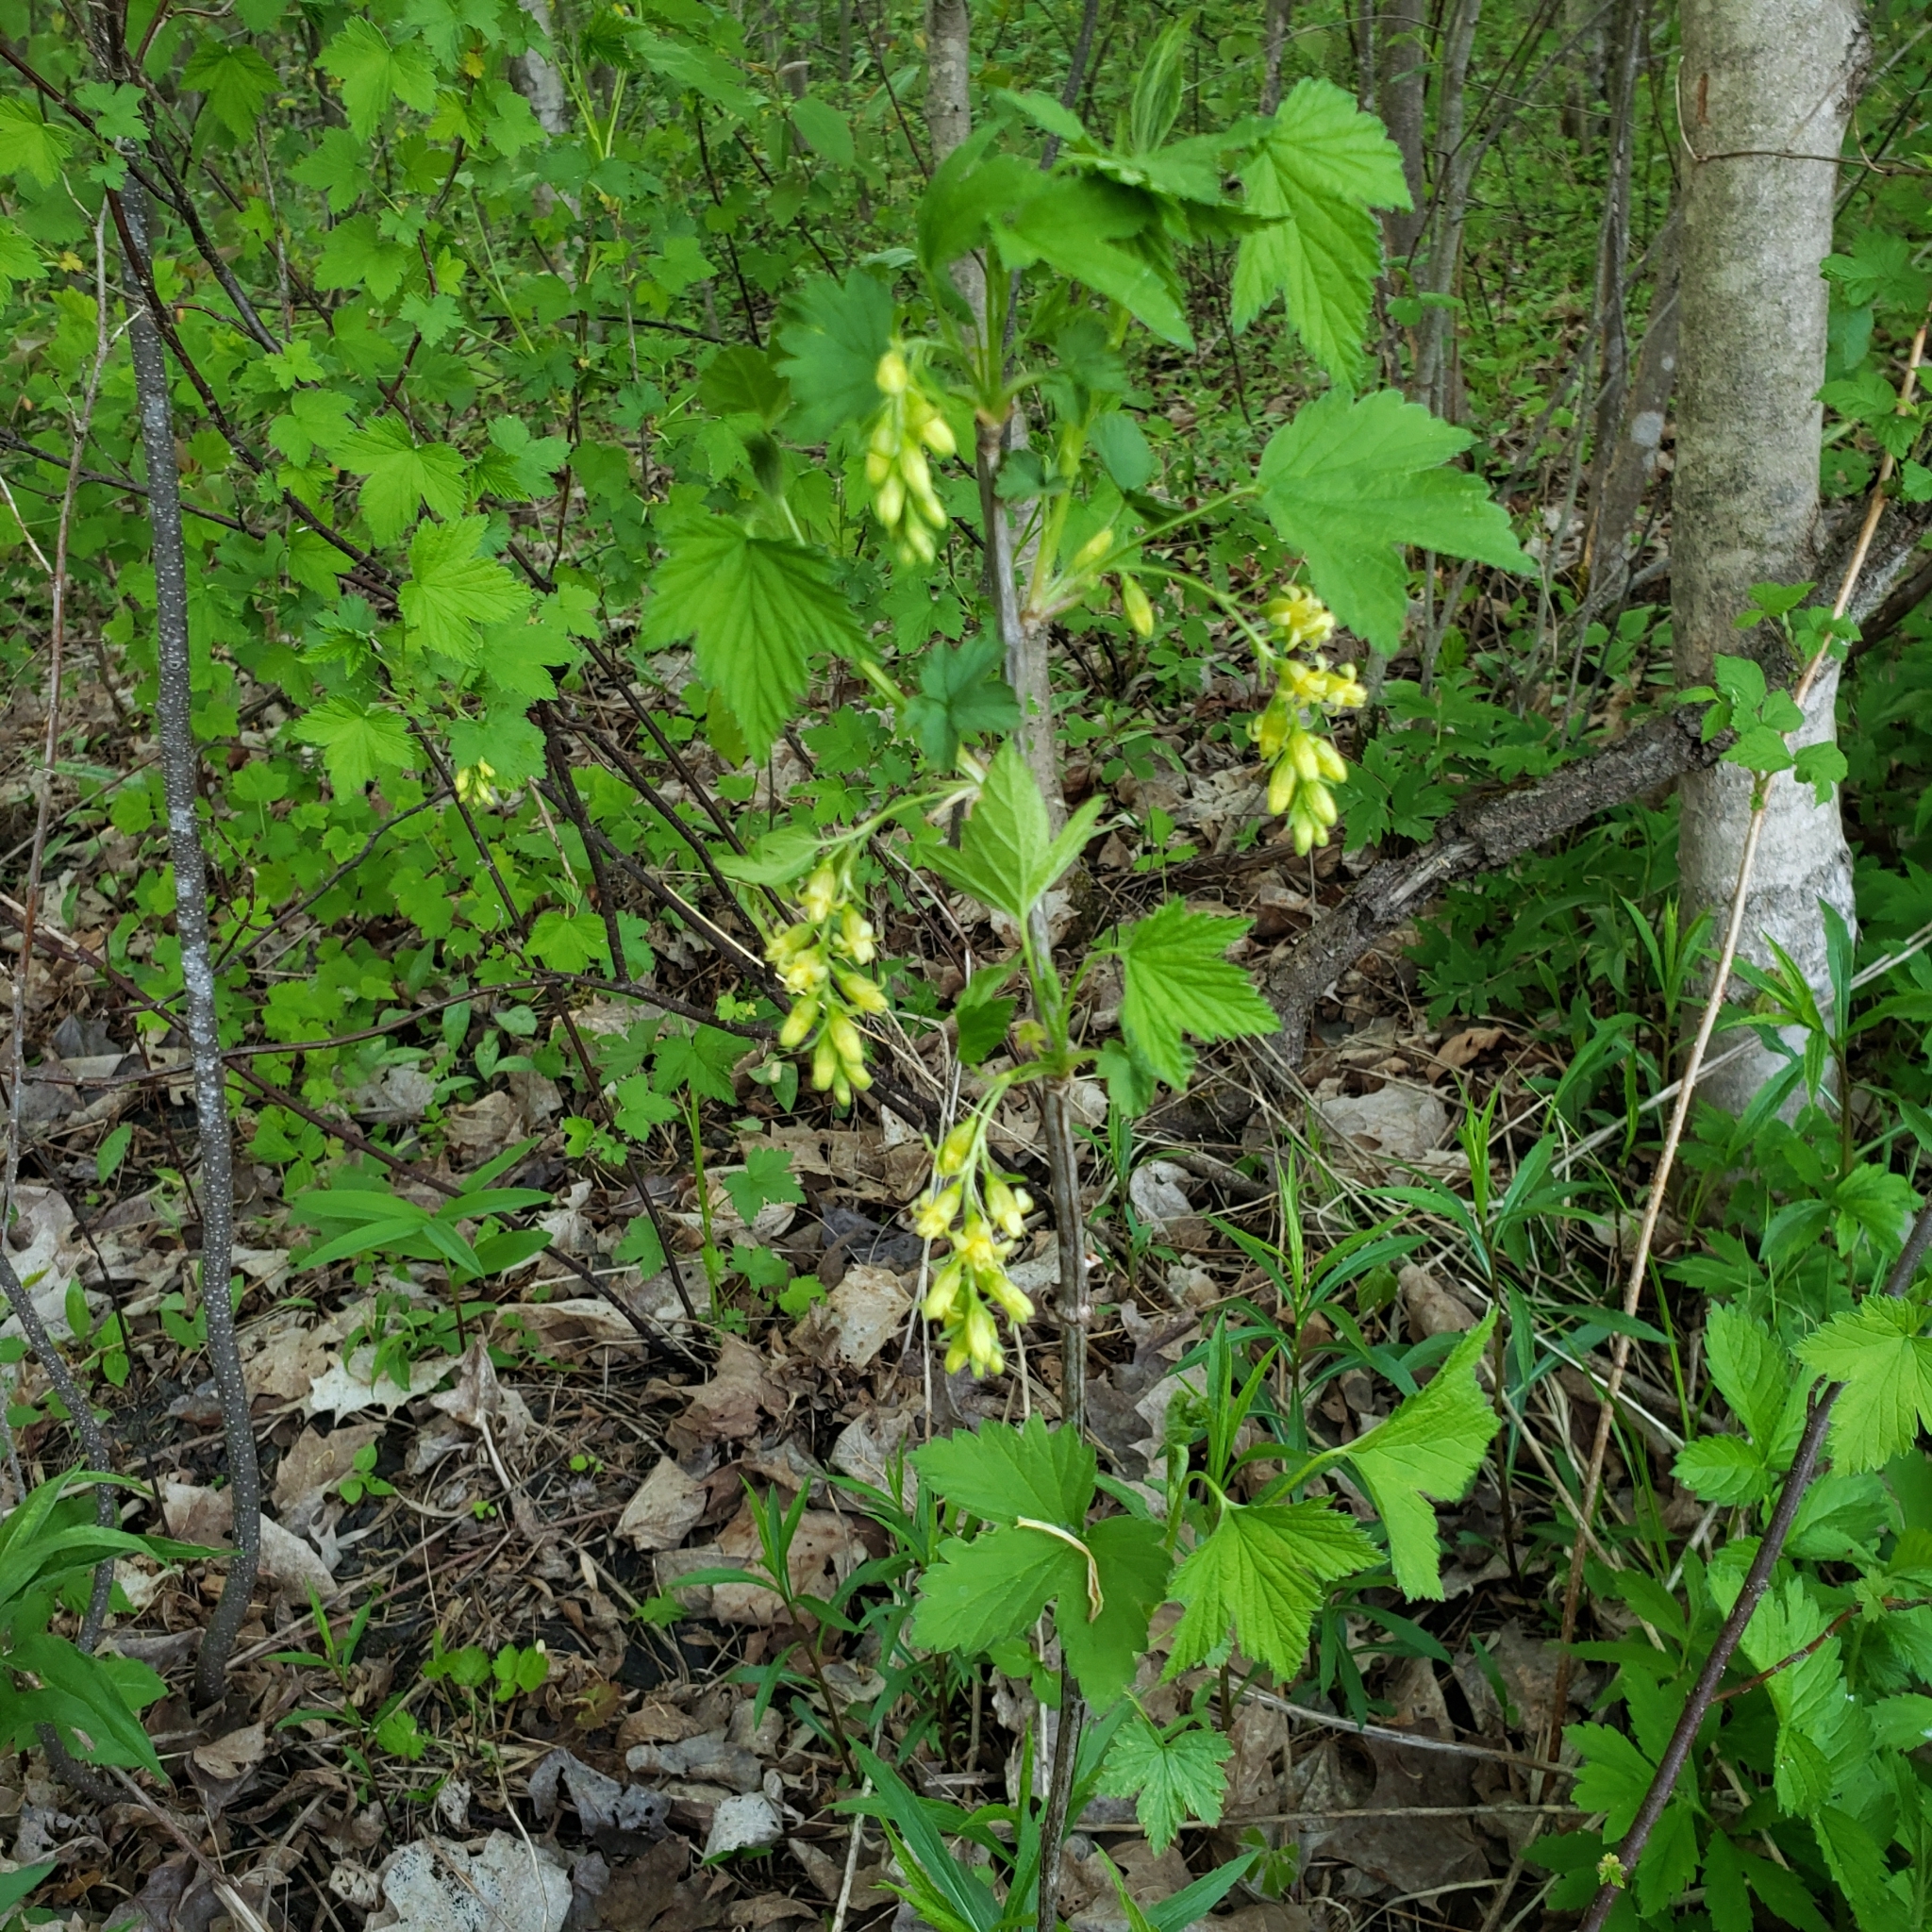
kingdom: Plantae
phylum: Tracheophyta
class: Magnoliopsida
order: Saxifragales
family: Grossulariaceae
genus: Ribes
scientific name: Ribes americanum
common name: American black currant
